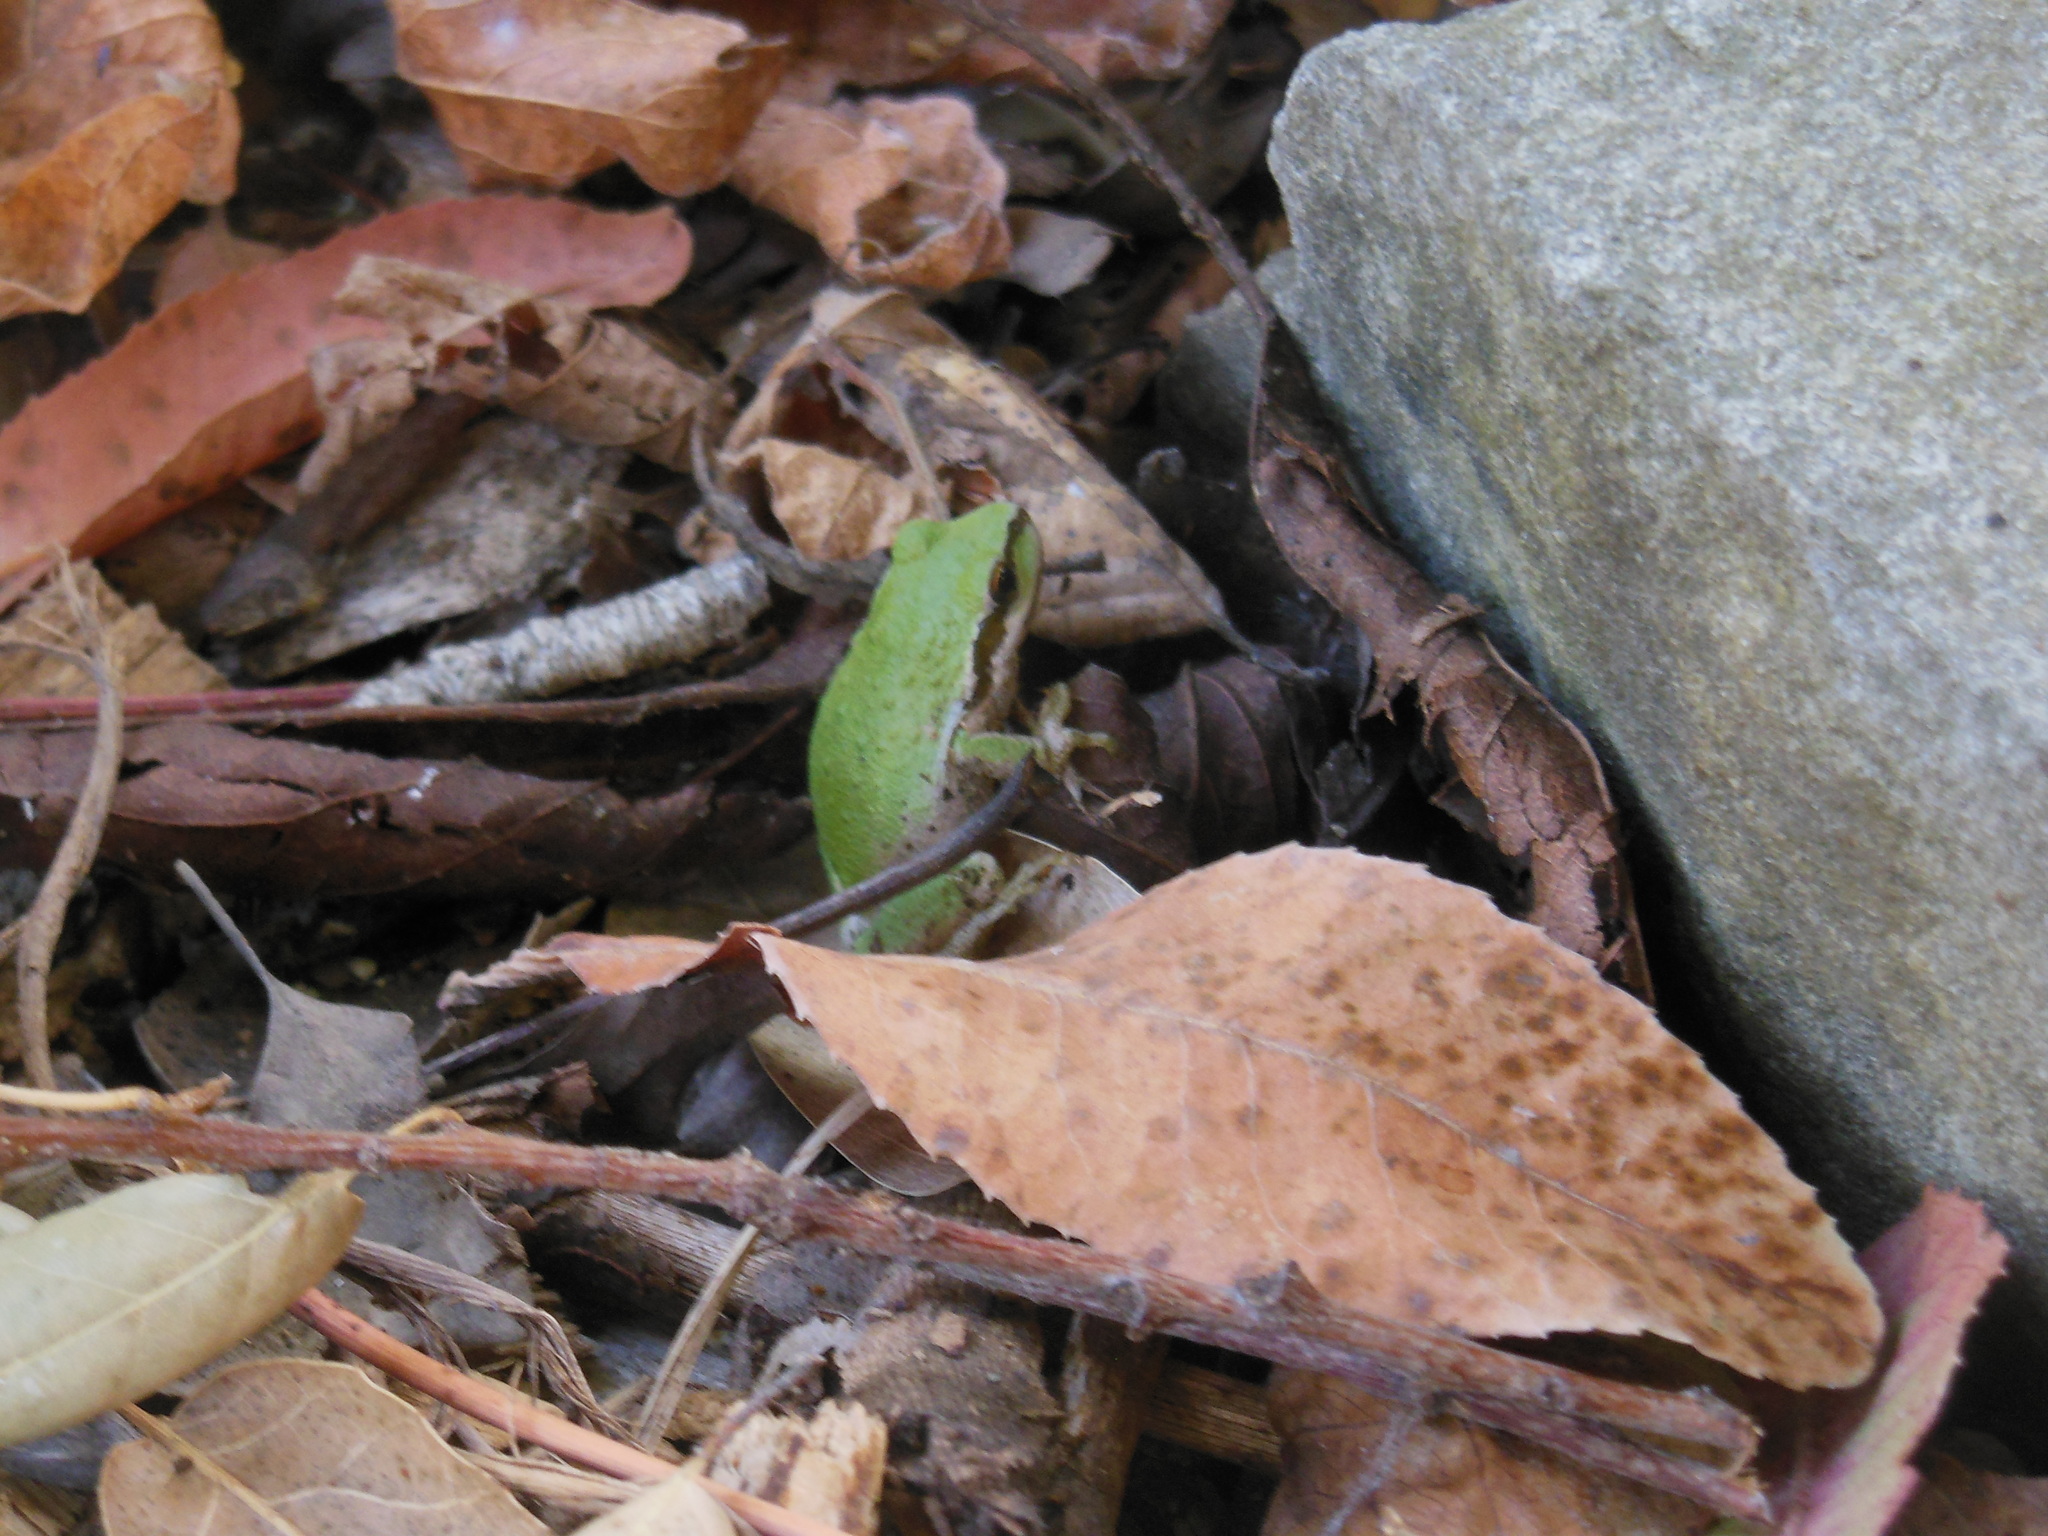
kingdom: Animalia
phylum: Chordata
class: Amphibia
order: Anura
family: Hylidae
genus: Pseudacris
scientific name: Pseudacris regilla
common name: Pacific chorus frog
